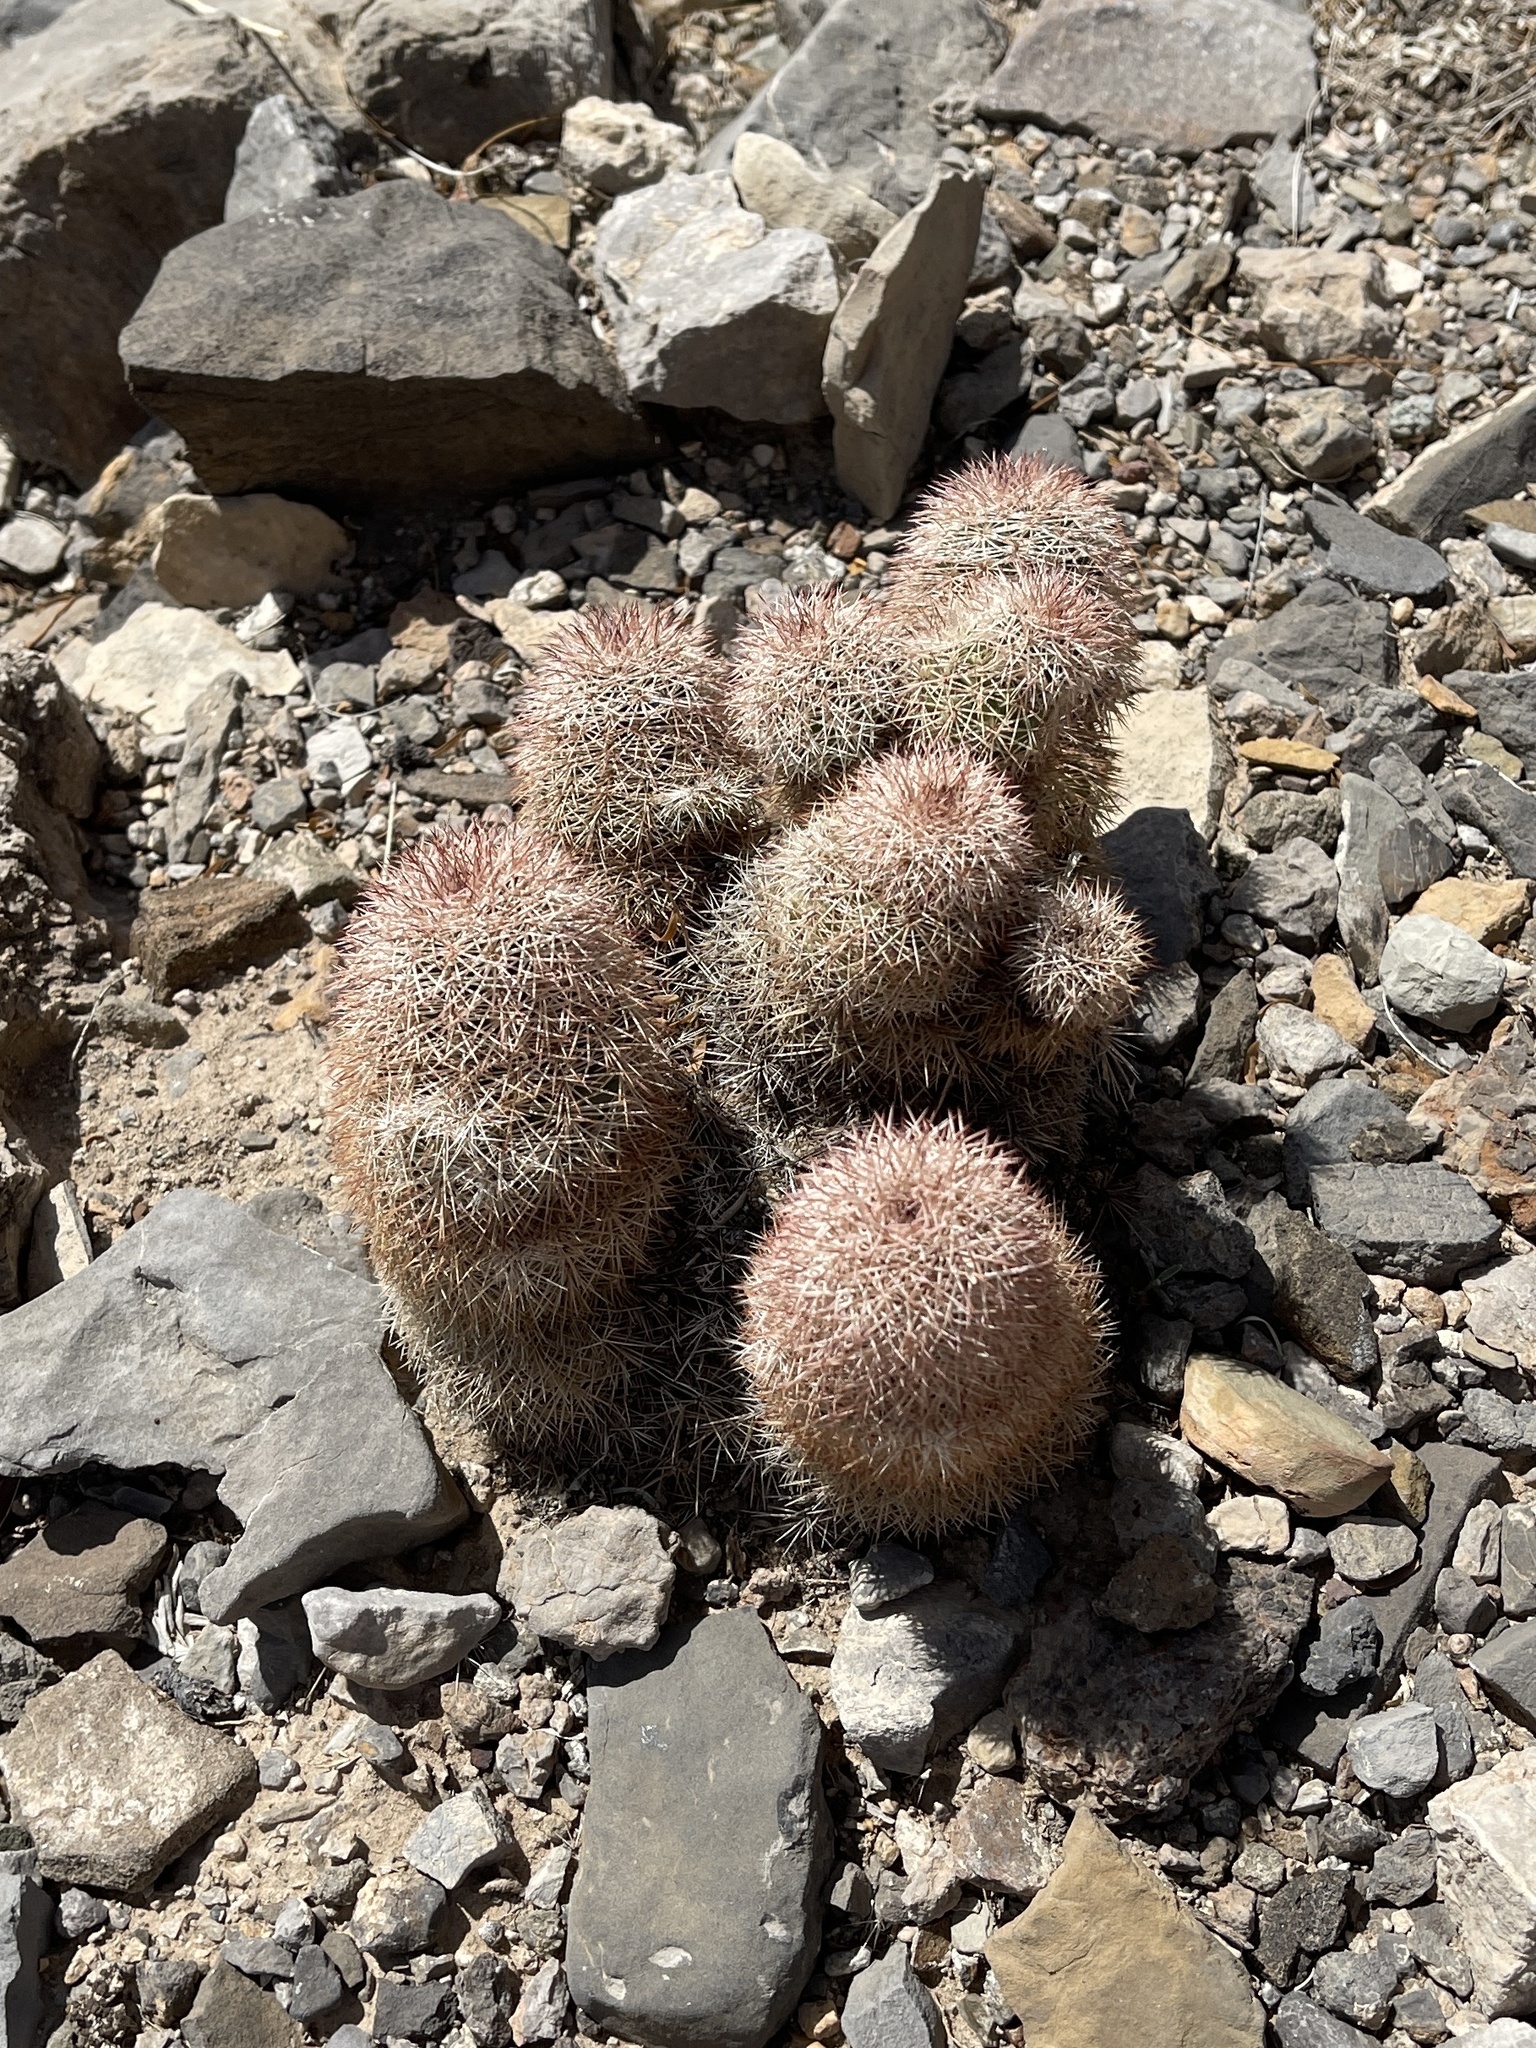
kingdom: Plantae
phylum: Tracheophyta
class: Magnoliopsida
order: Caryophyllales
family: Cactaceae
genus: Echinocereus
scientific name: Echinocereus dasyacanthus
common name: Spiny hedgehog cactus
